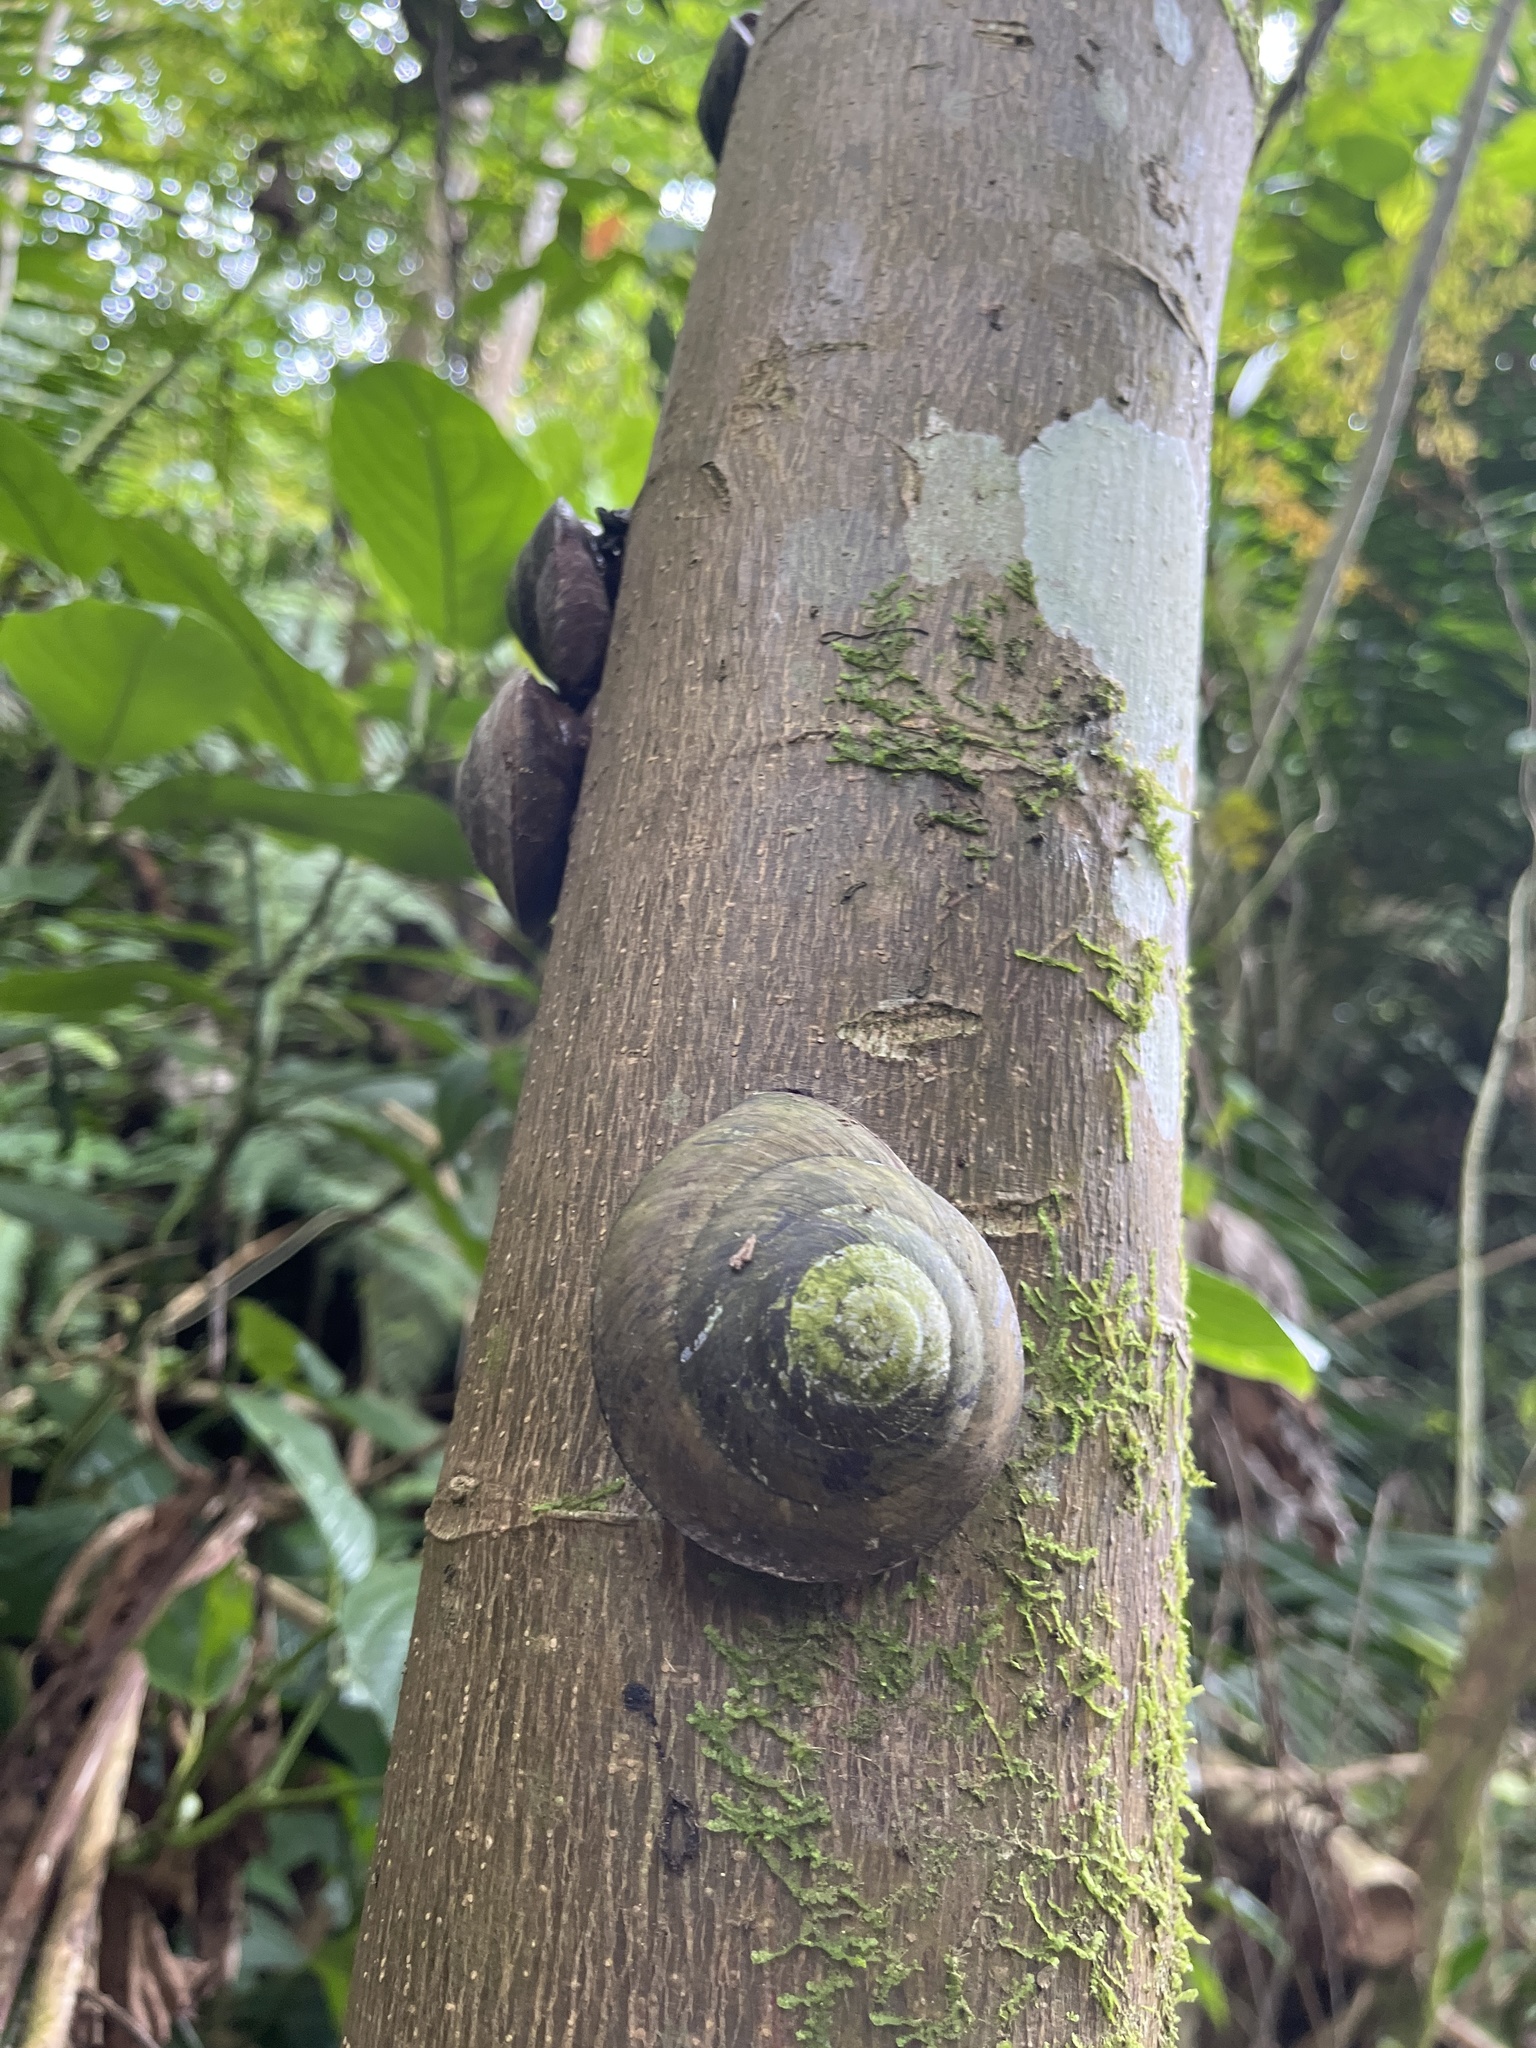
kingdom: Animalia
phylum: Mollusca
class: Gastropoda
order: Stylommatophora
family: Solaropsidae
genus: Caracolus
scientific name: Caracolus carocolla
